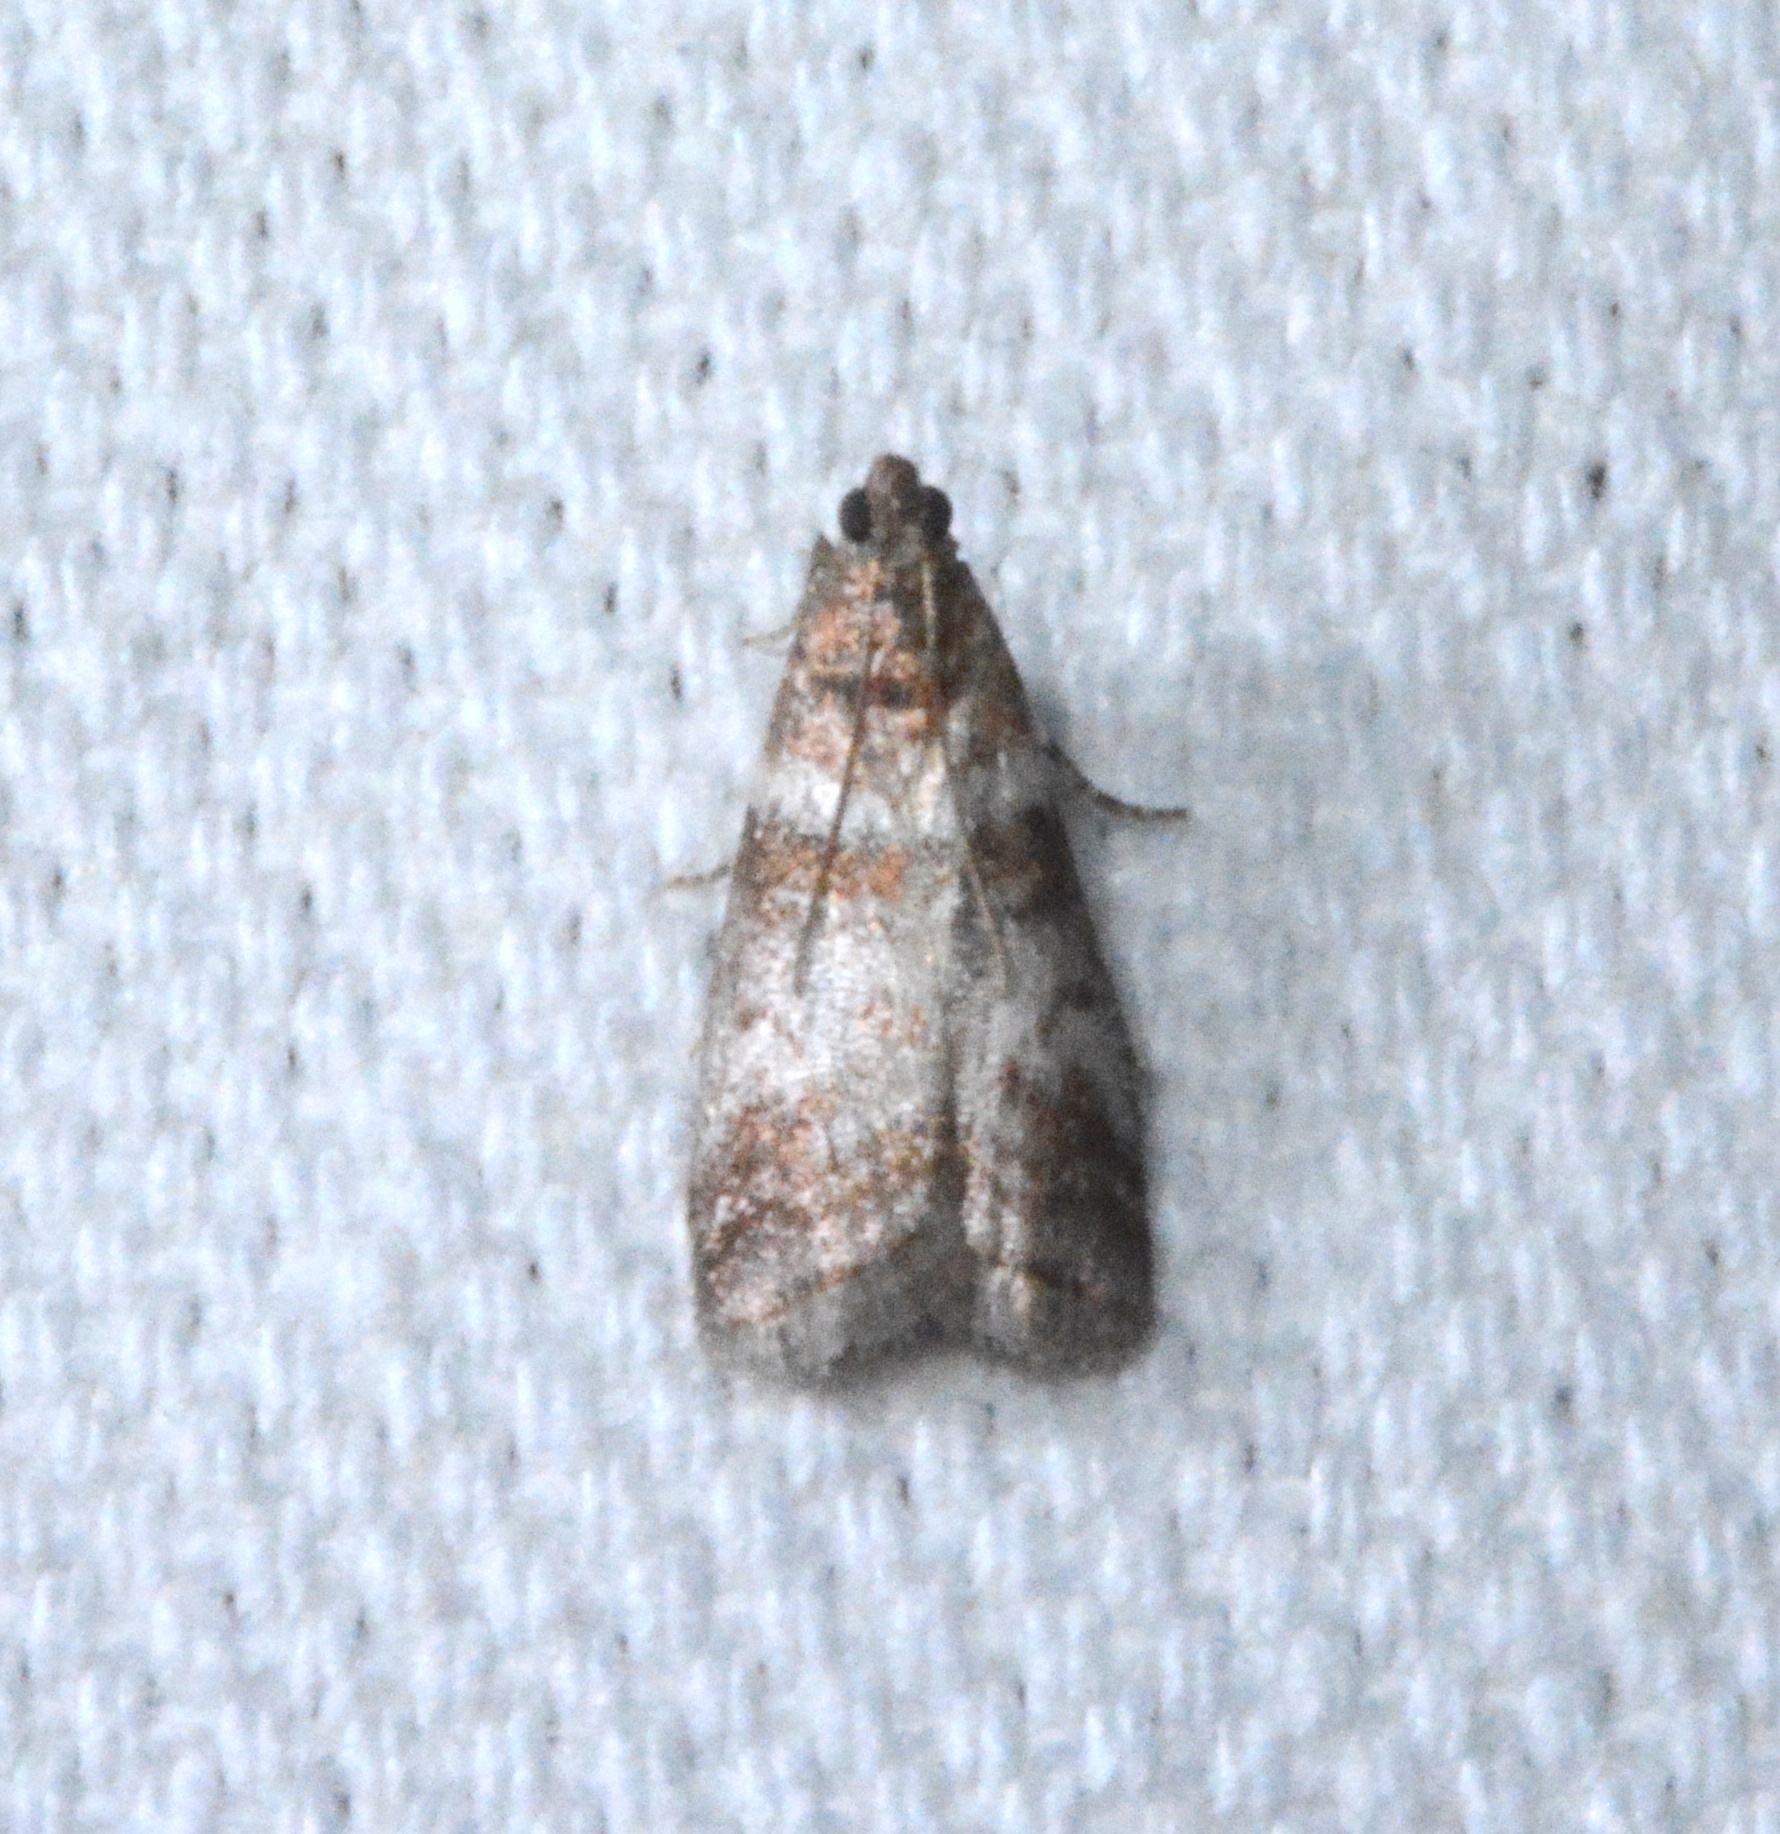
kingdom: Animalia
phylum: Arthropoda
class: Insecta
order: Lepidoptera
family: Pyralidae
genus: Sciota
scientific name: Sciota uvinella
